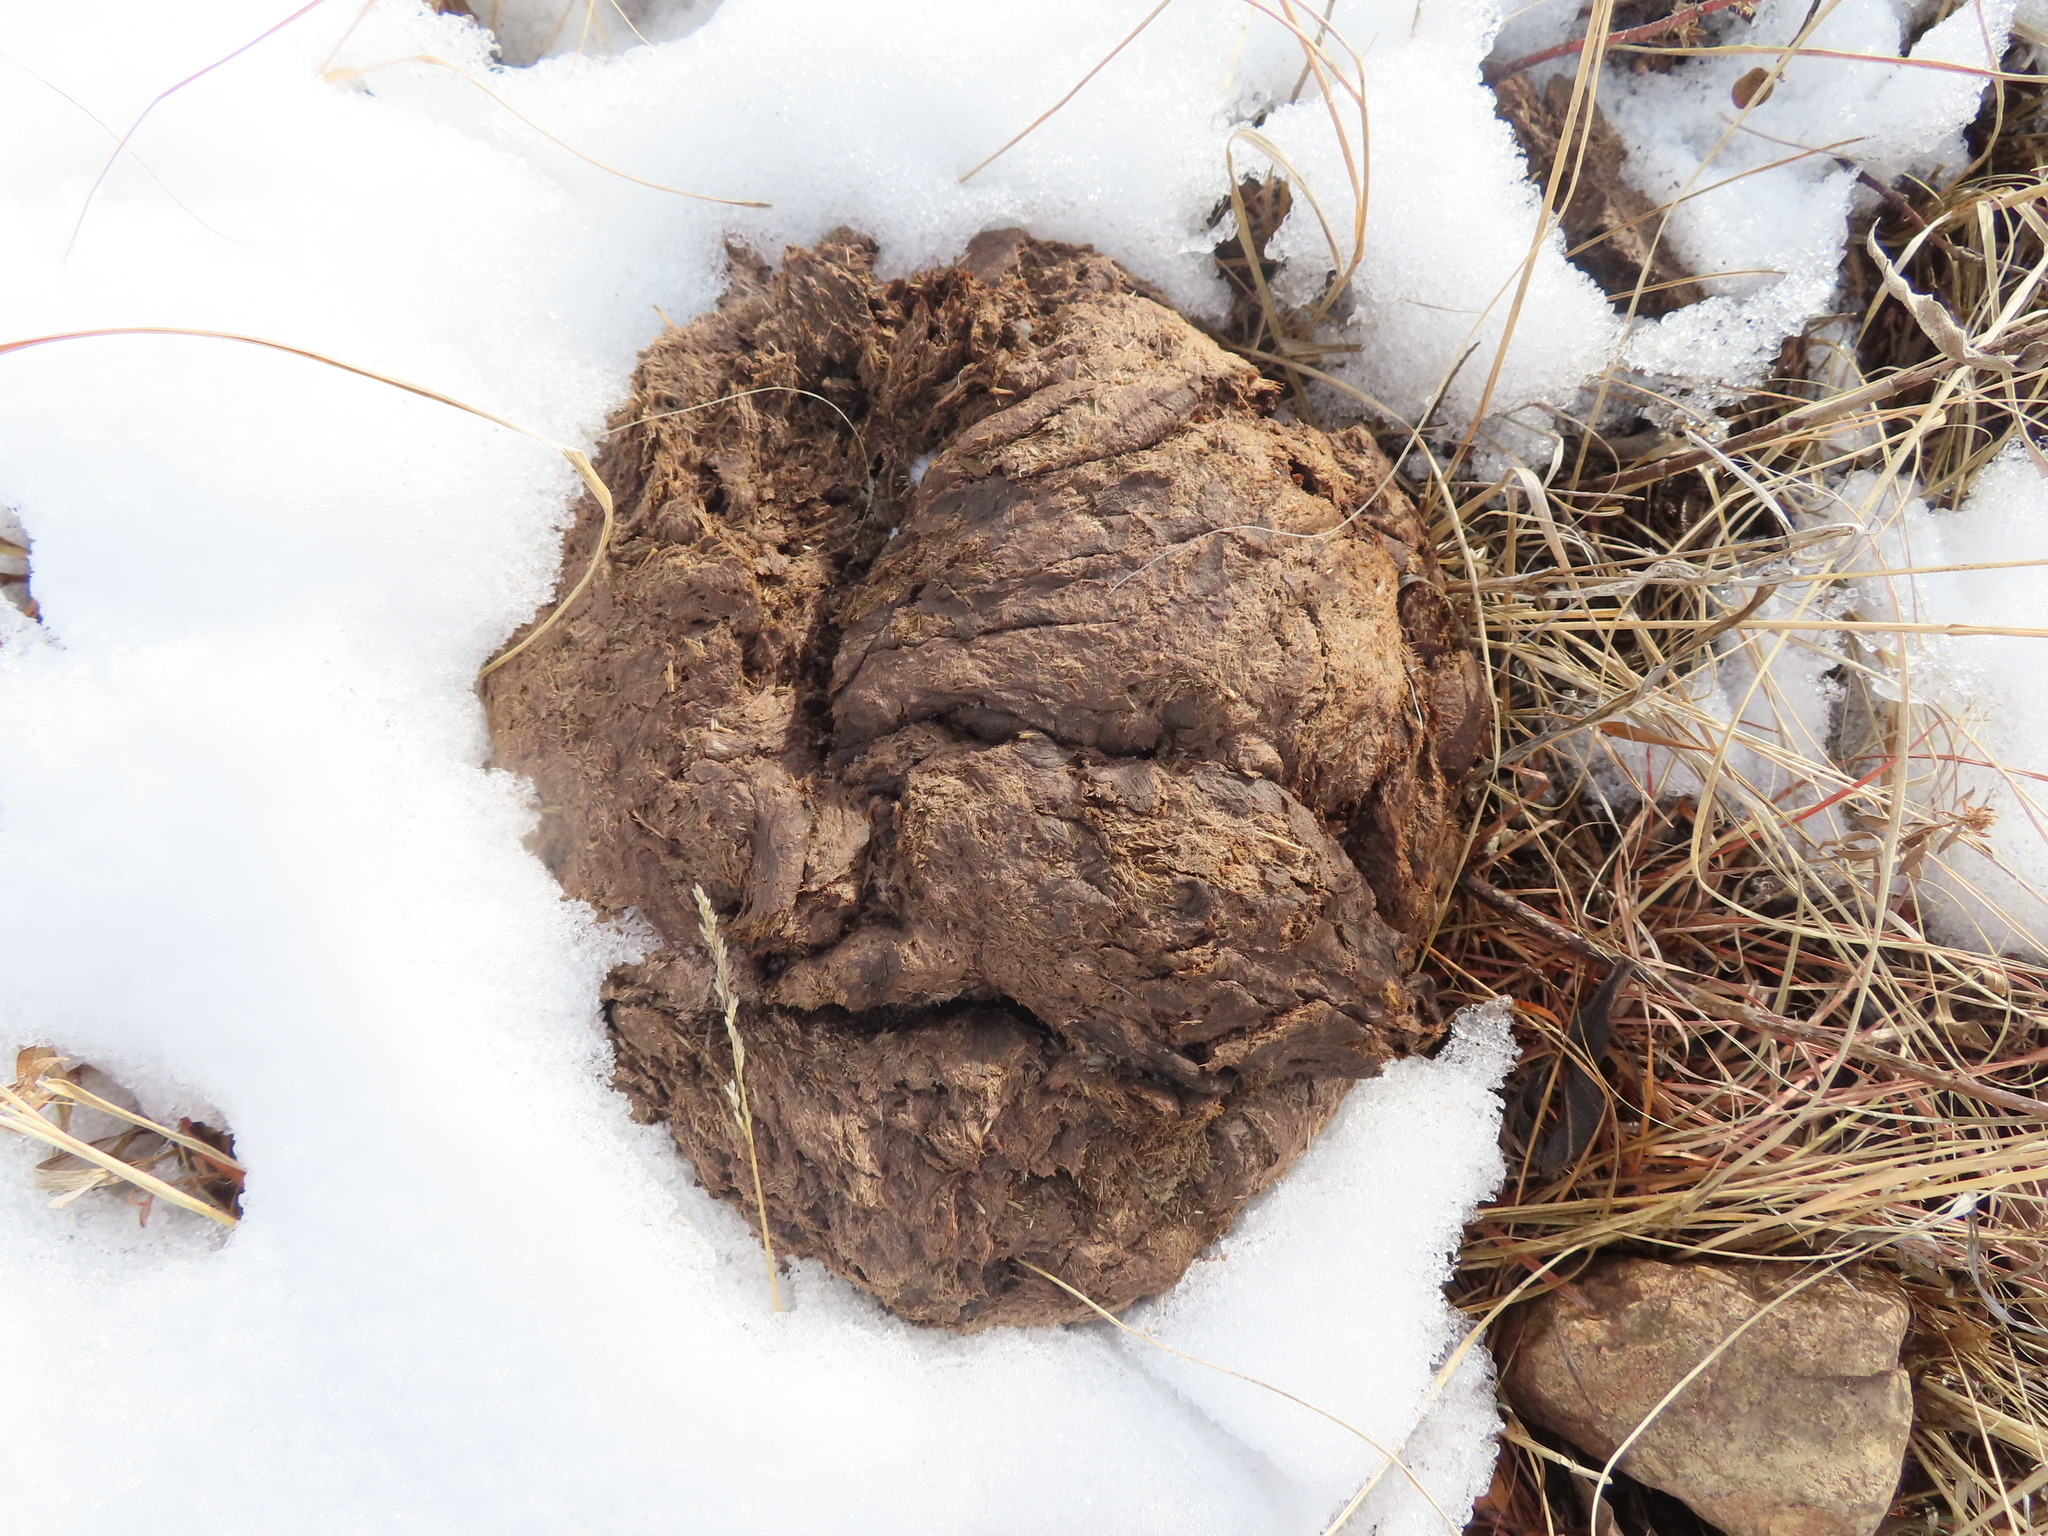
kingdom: Animalia
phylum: Chordata
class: Mammalia
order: Artiodactyla
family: Bovidae
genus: Bison
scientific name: Bison bison
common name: American bison
